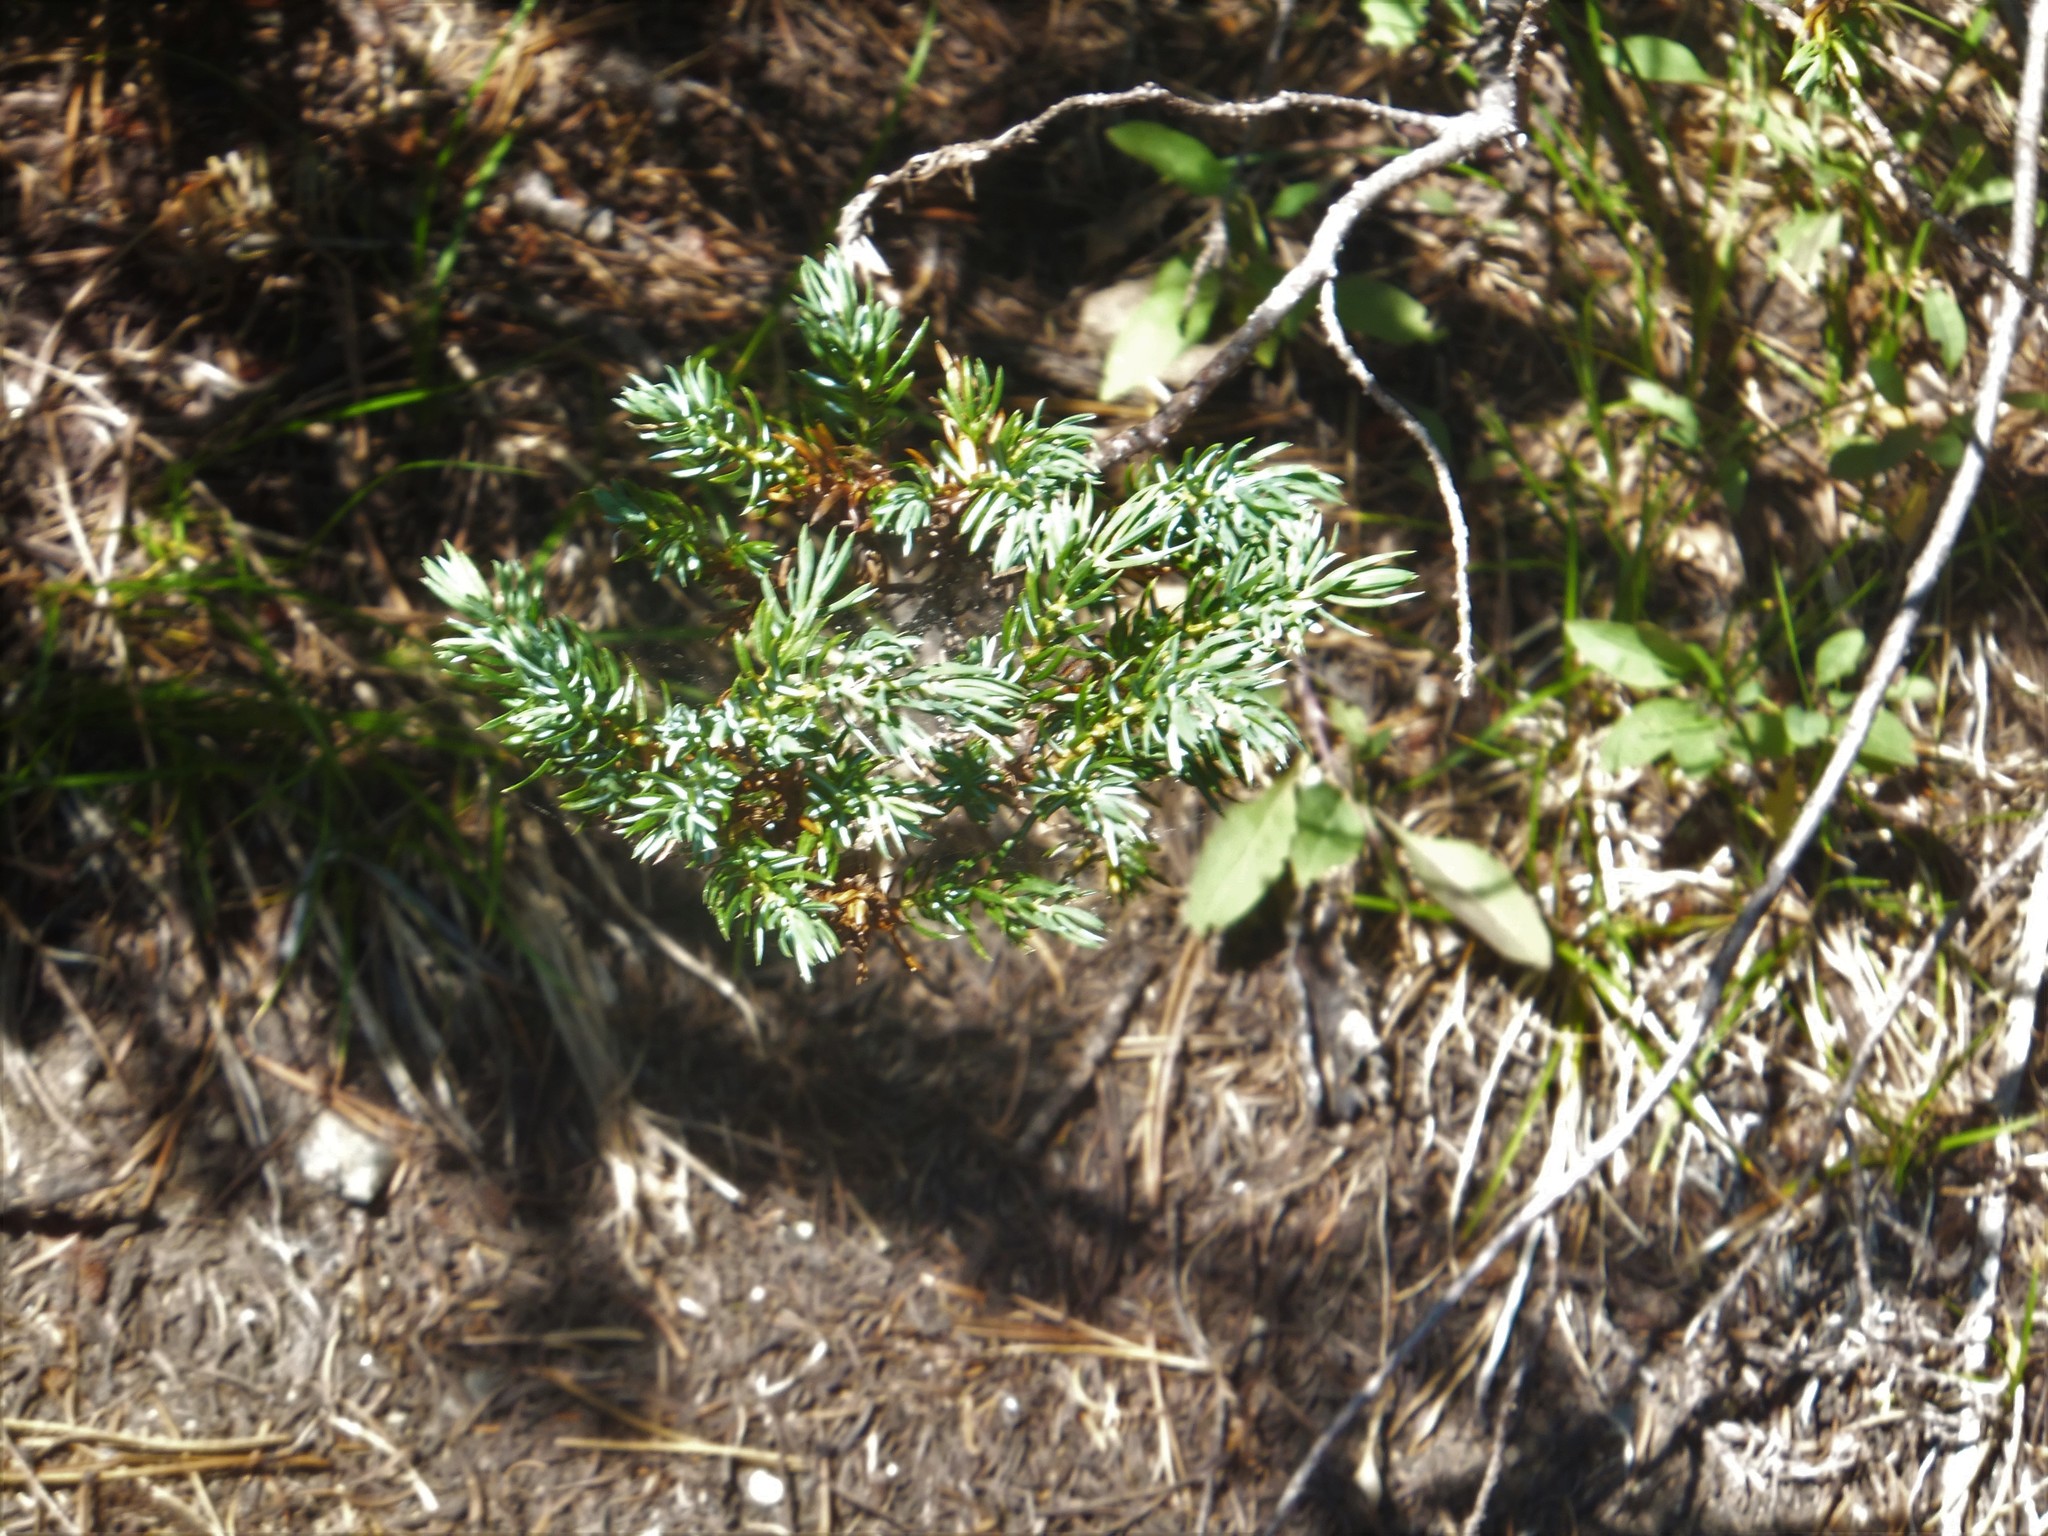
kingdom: Plantae
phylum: Tracheophyta
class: Pinopsida
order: Pinales
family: Cupressaceae
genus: Juniperus
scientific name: Juniperus communis
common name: Common juniper
